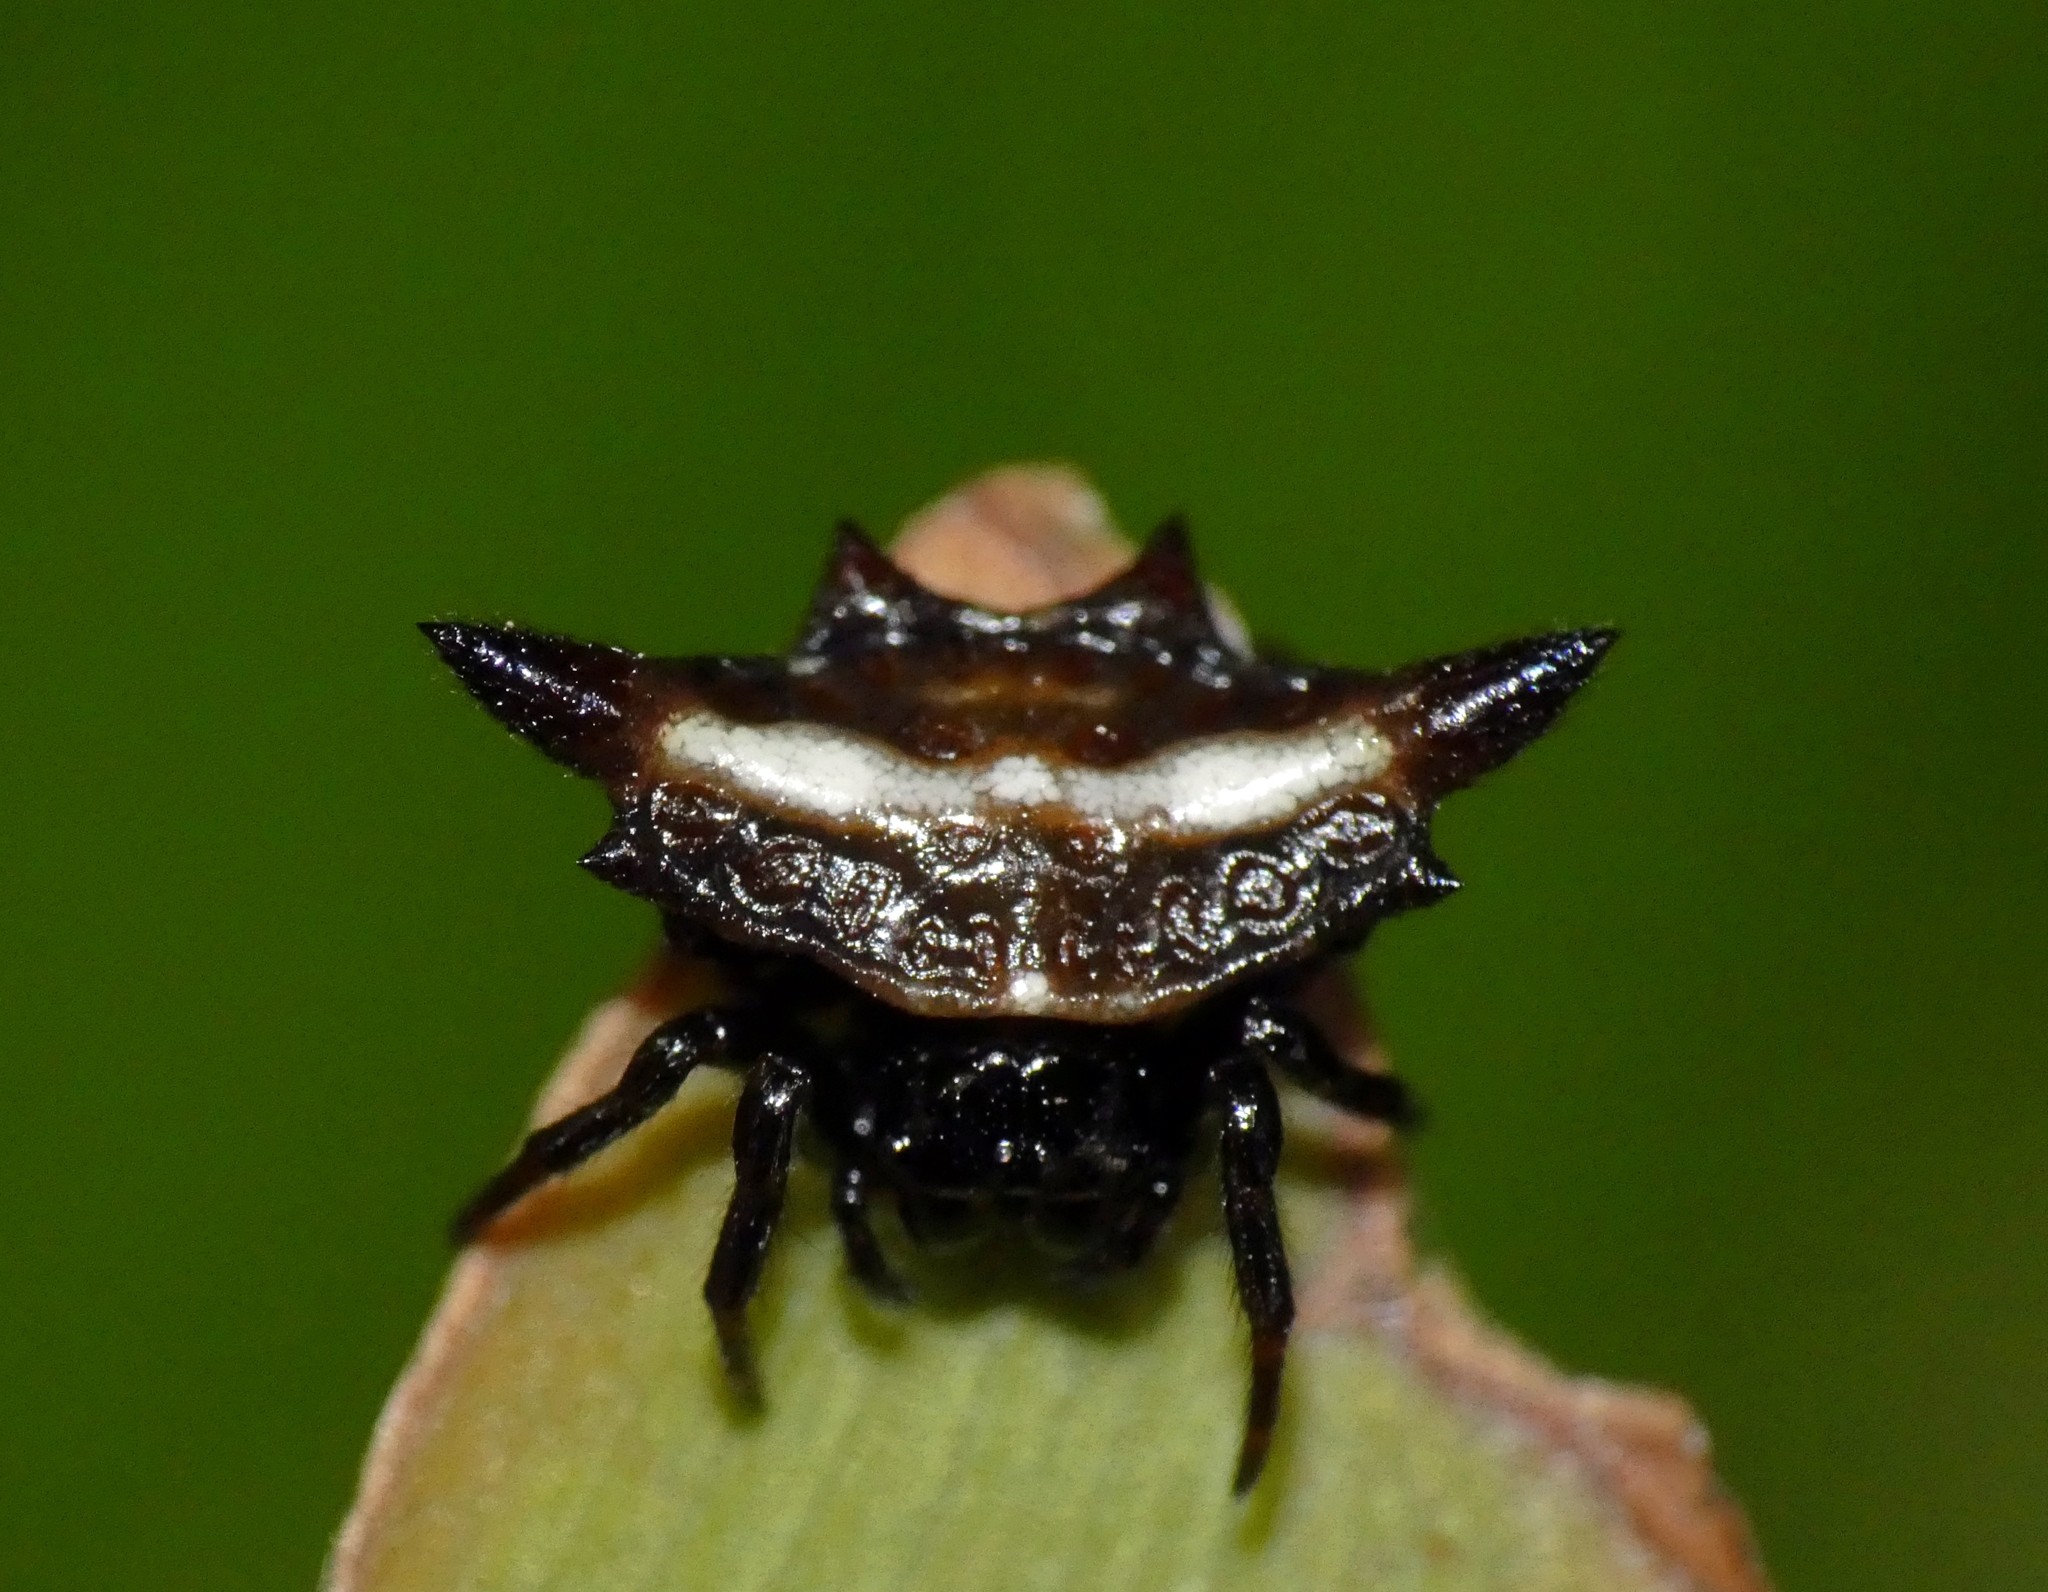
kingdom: Animalia
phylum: Arthropoda
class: Arachnida
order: Araneae
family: Araneidae
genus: Gasteracantha
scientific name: Gasteracantha fornicata
